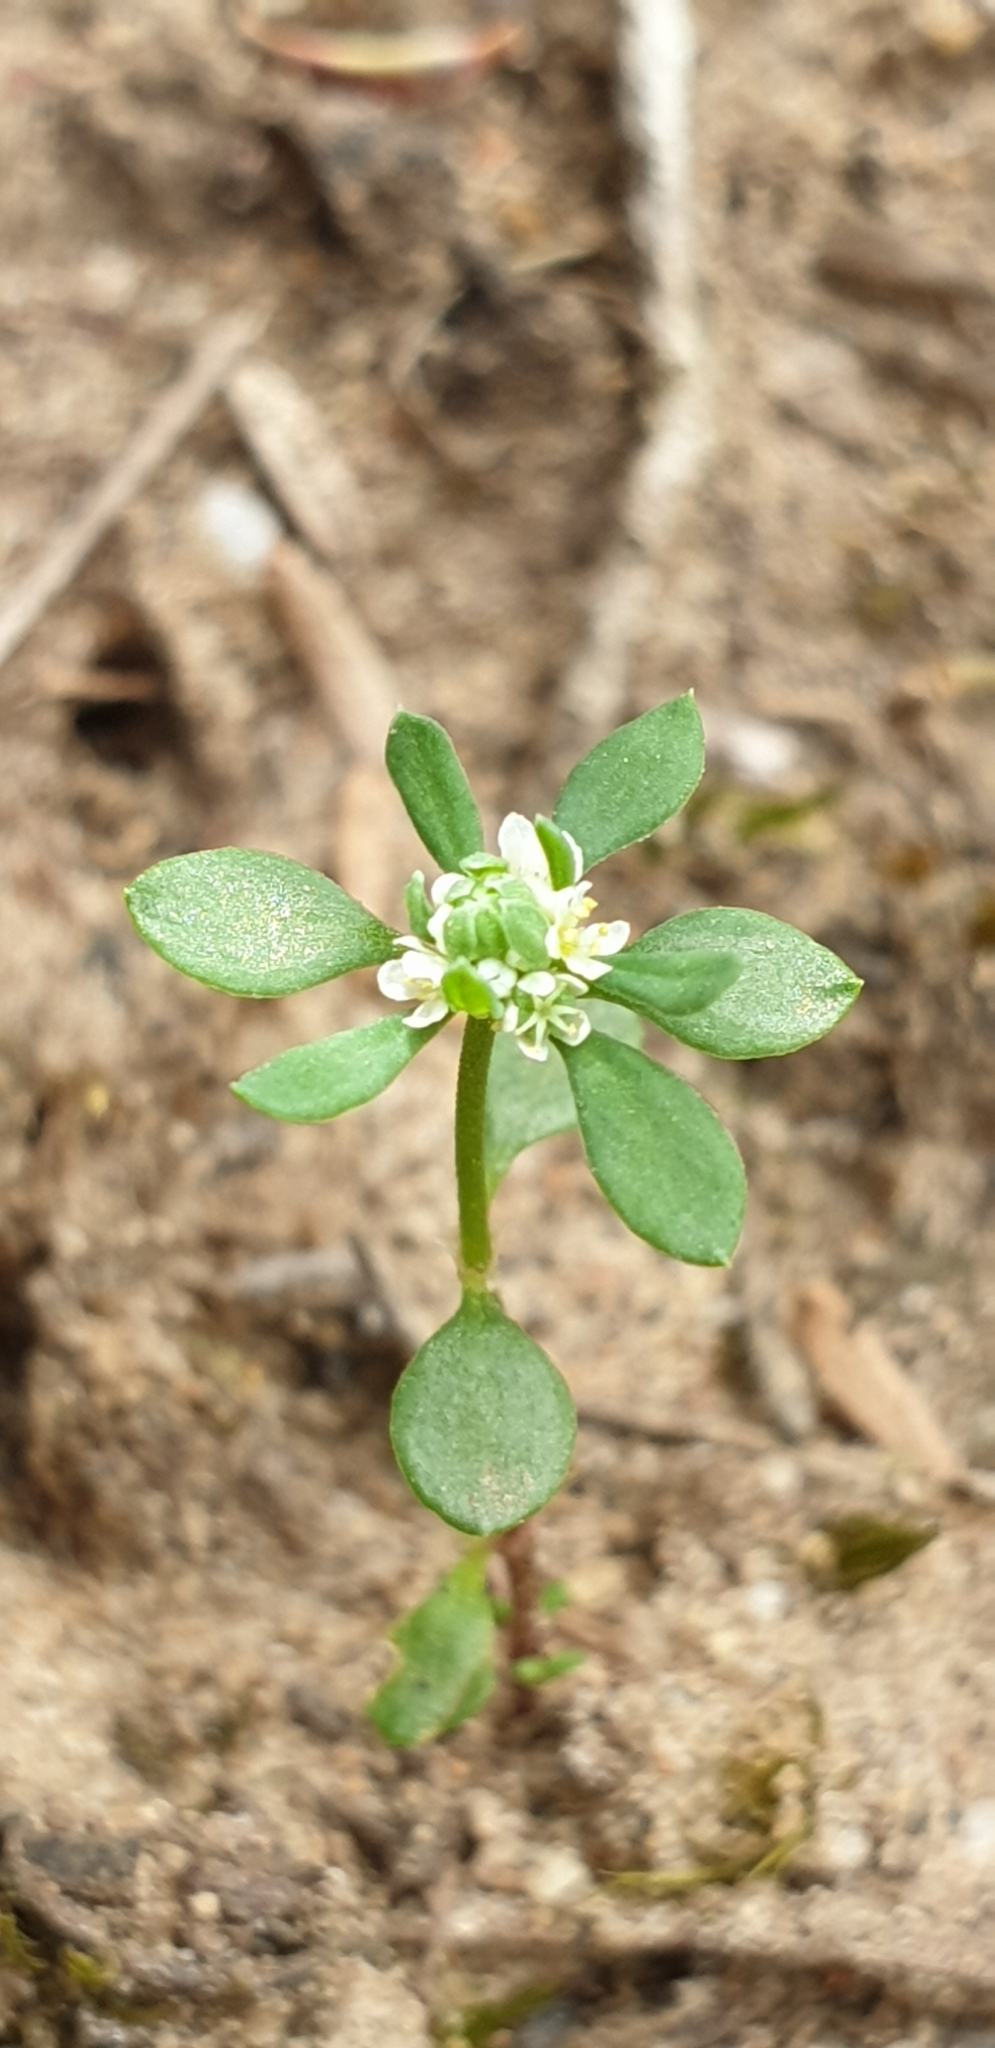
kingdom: Plantae
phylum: Tracheophyta
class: Magnoliopsida
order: Malpighiales
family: Phyllanthaceae
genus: Poranthera
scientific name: Poranthera microphylla
